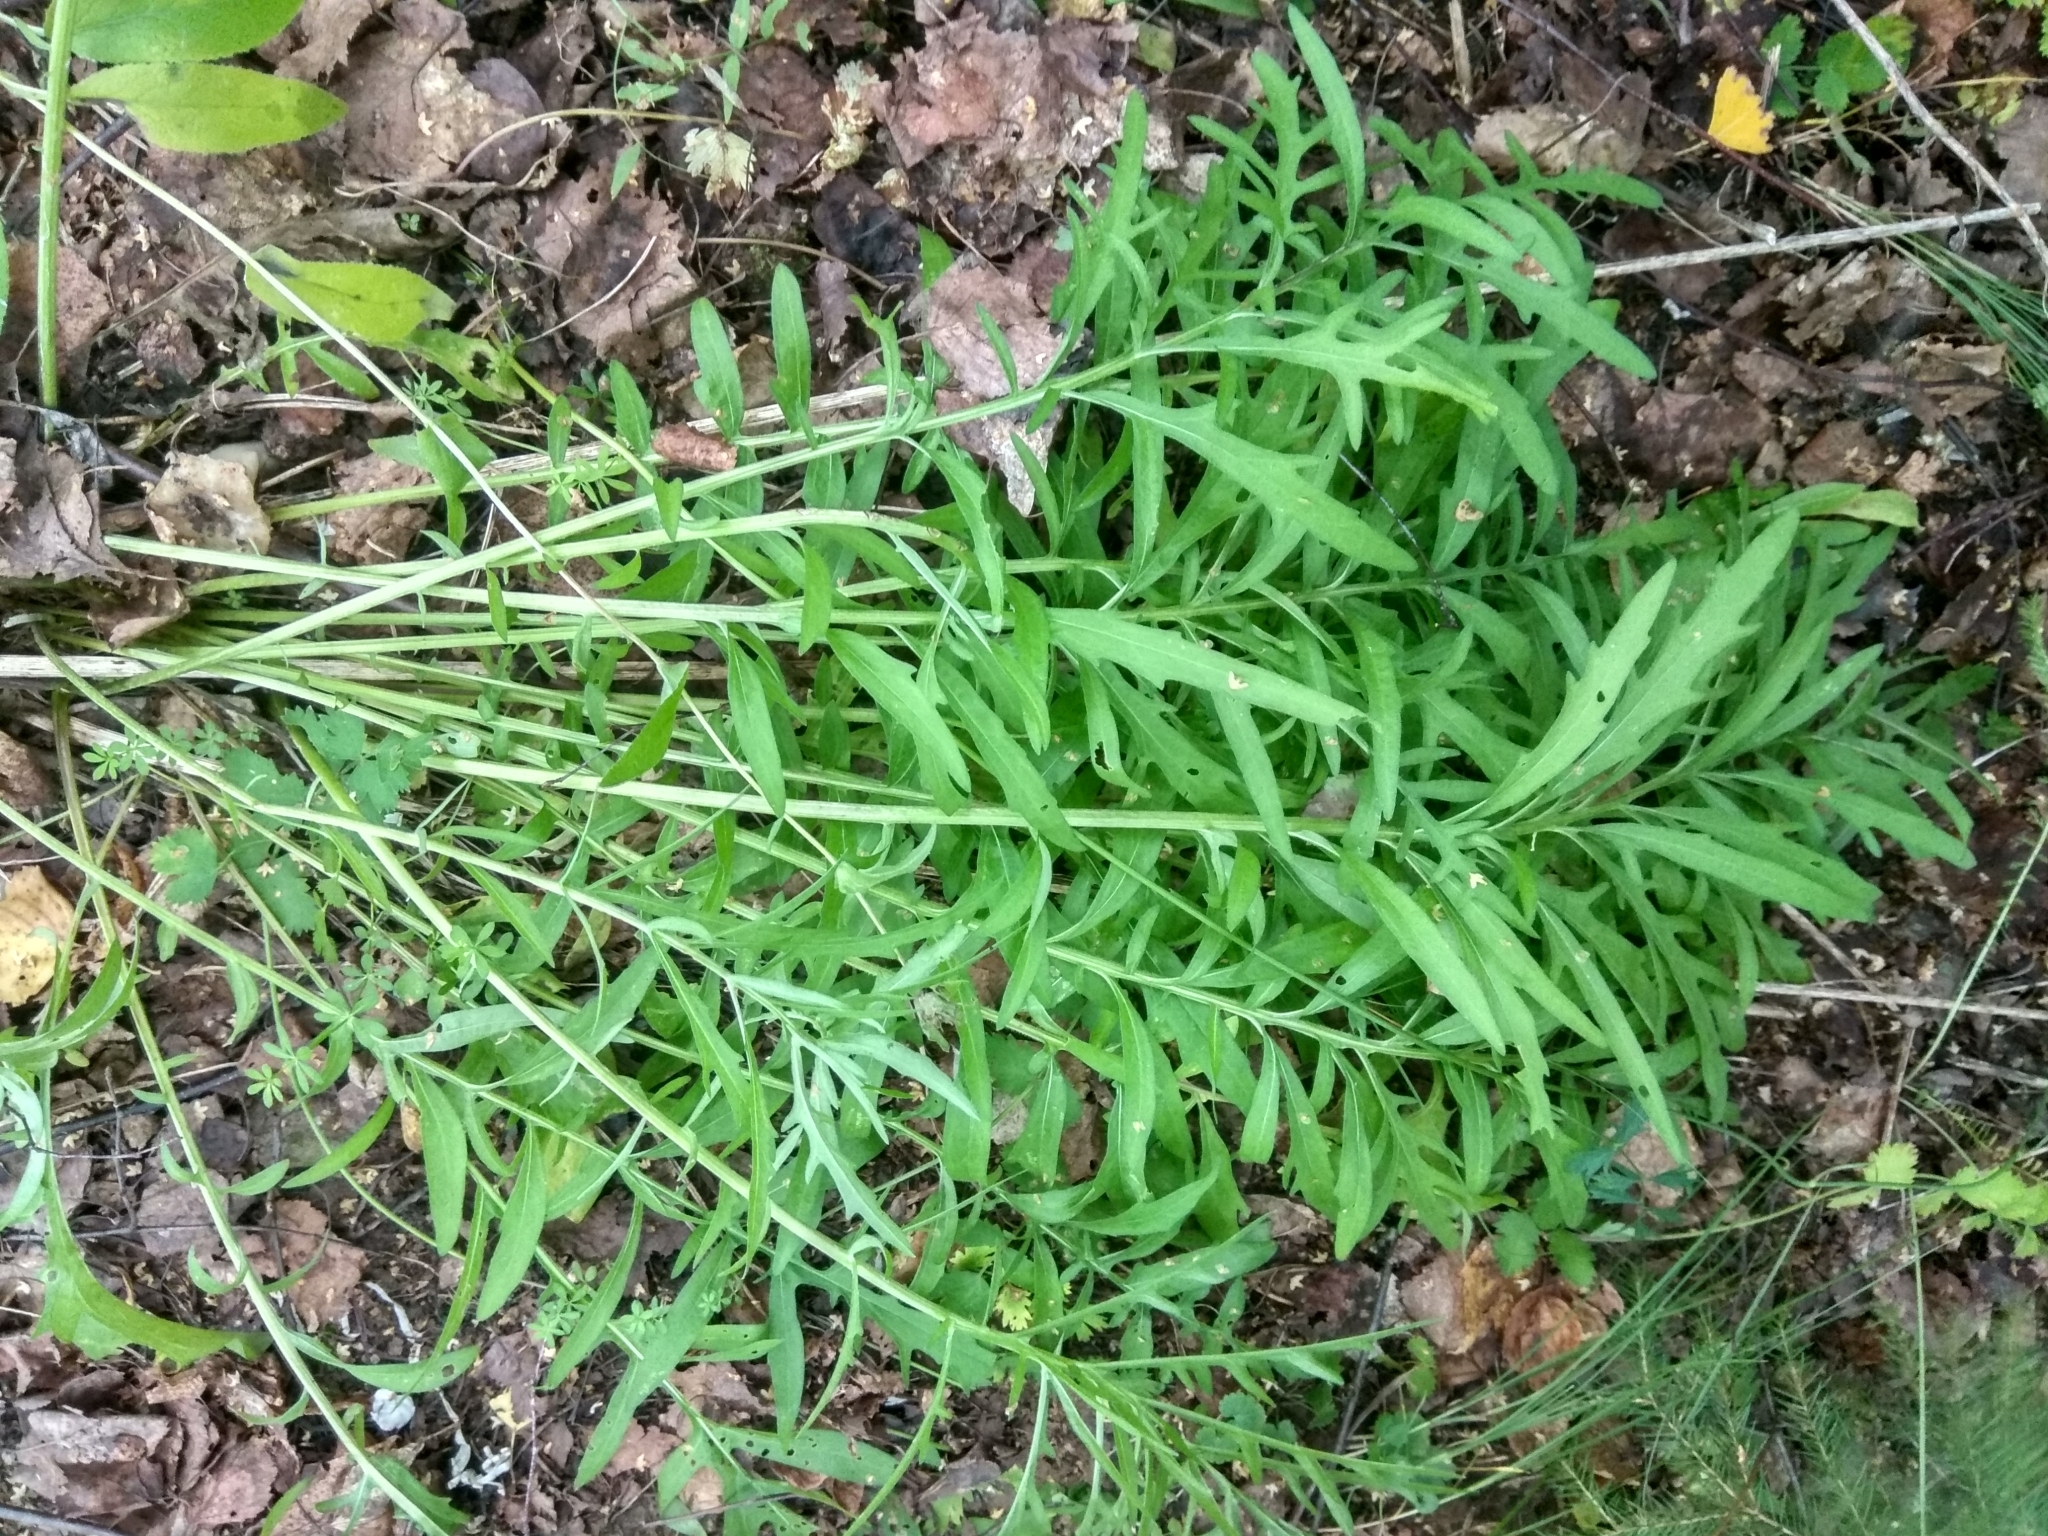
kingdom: Plantae
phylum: Tracheophyta
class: Magnoliopsida
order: Asterales
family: Asteraceae
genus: Centaurea
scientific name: Centaurea scabiosa
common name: Greater knapweed
